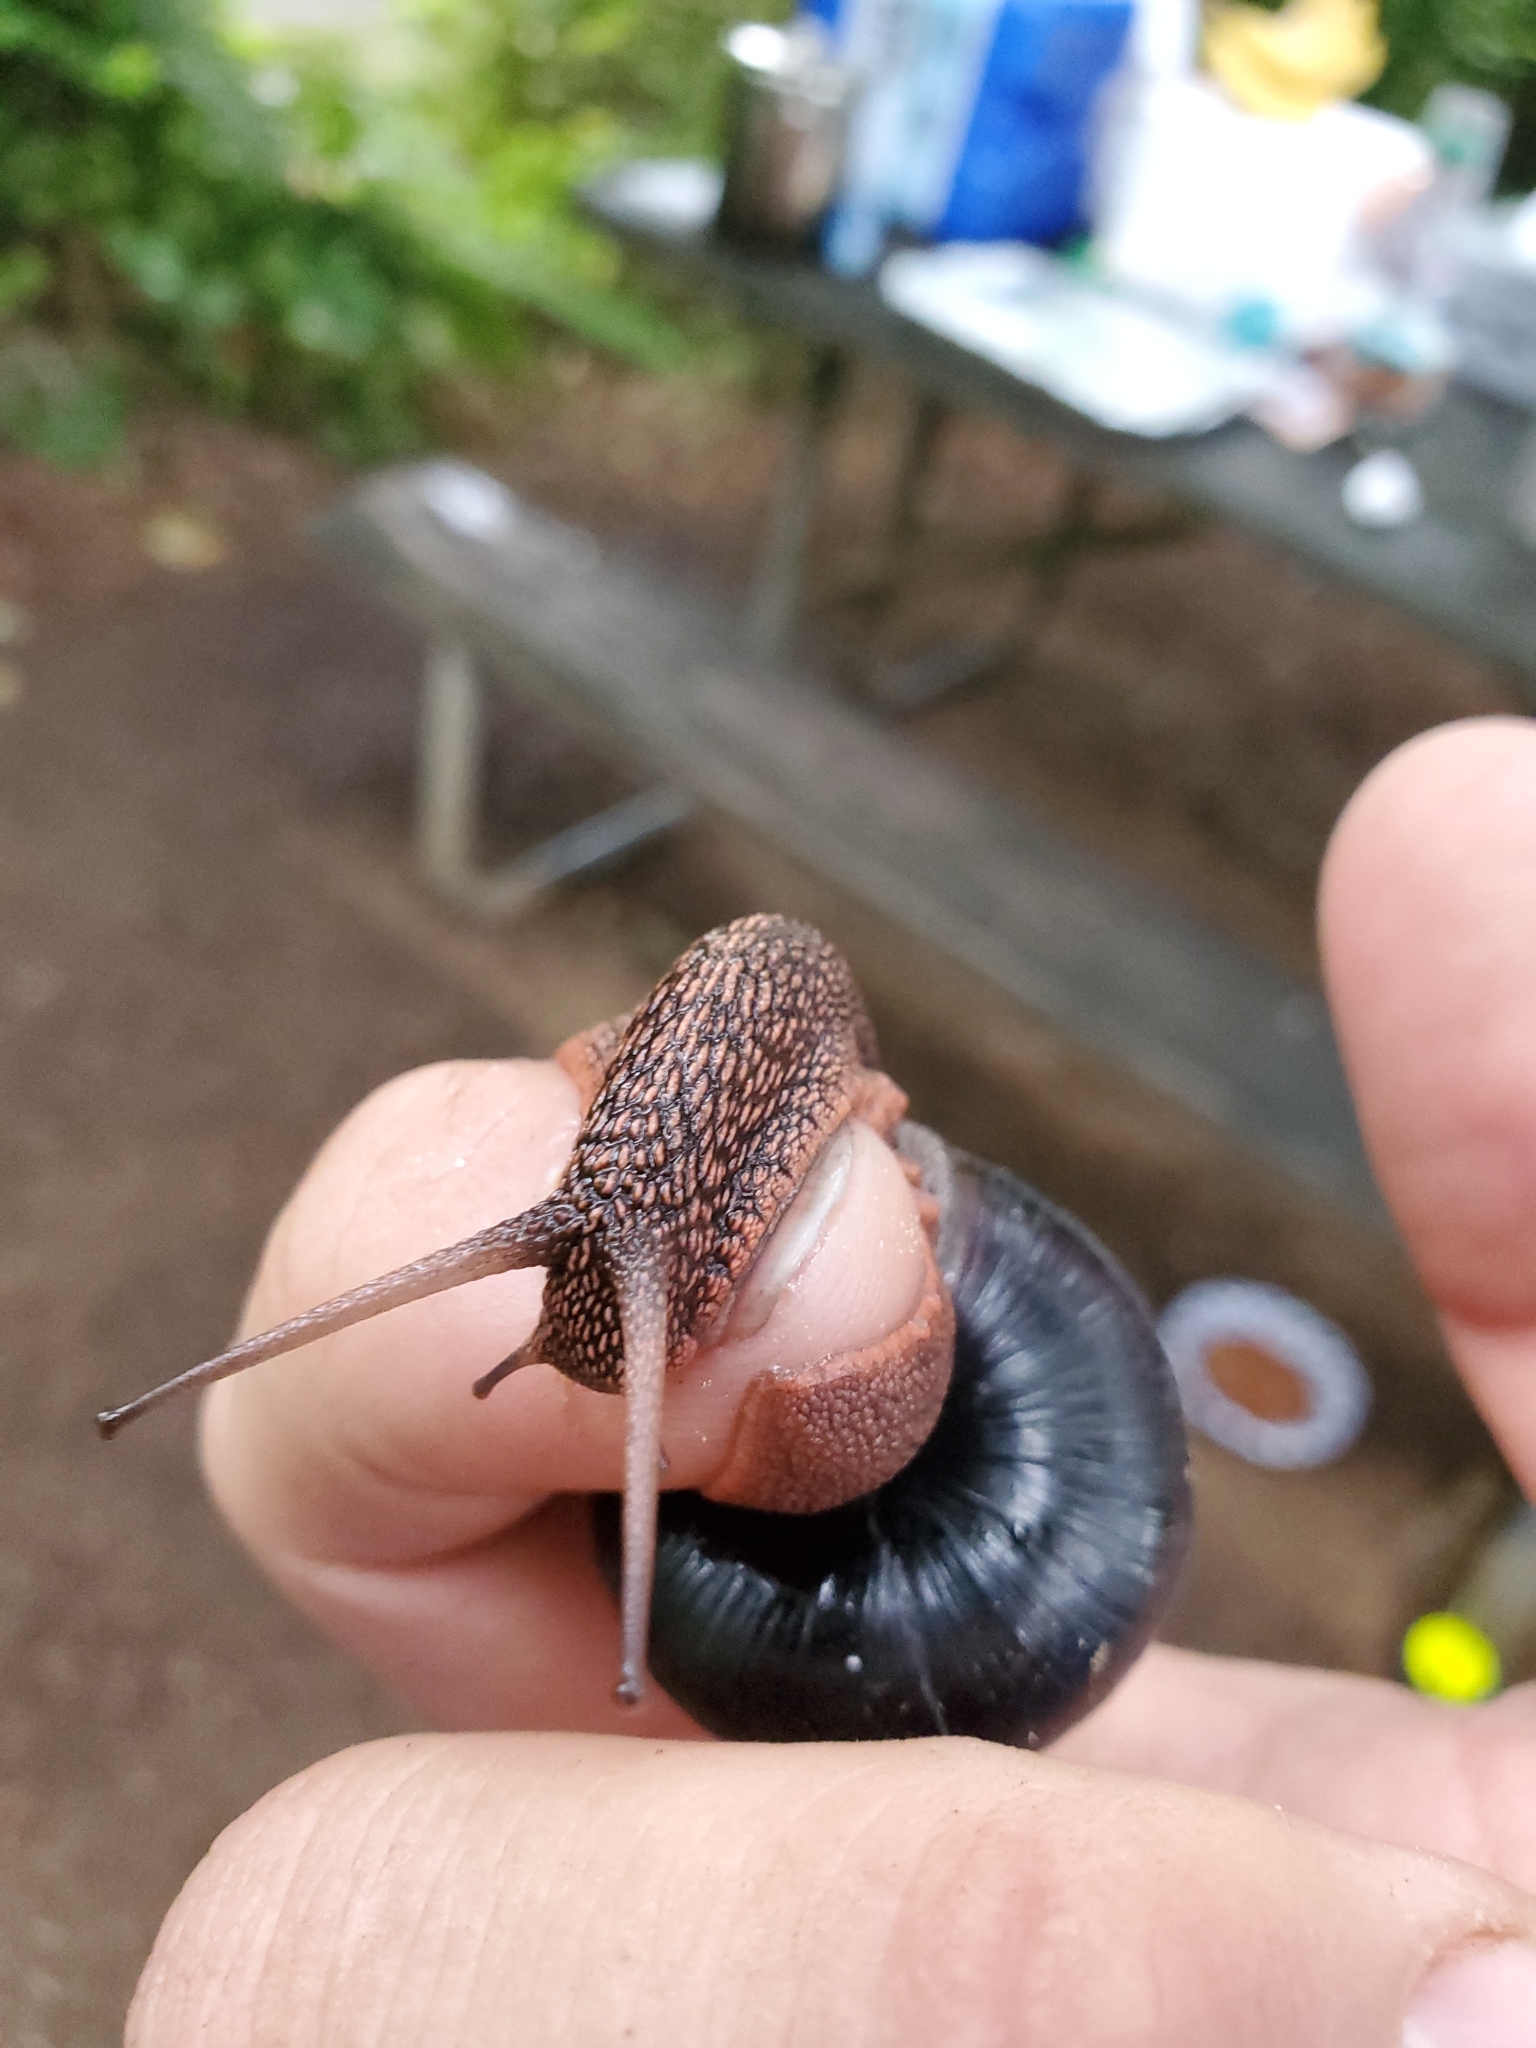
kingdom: Animalia
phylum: Mollusca
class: Gastropoda
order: Stylommatophora
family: Xanthonychidae
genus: Monadenia
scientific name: Monadenia fidelis
